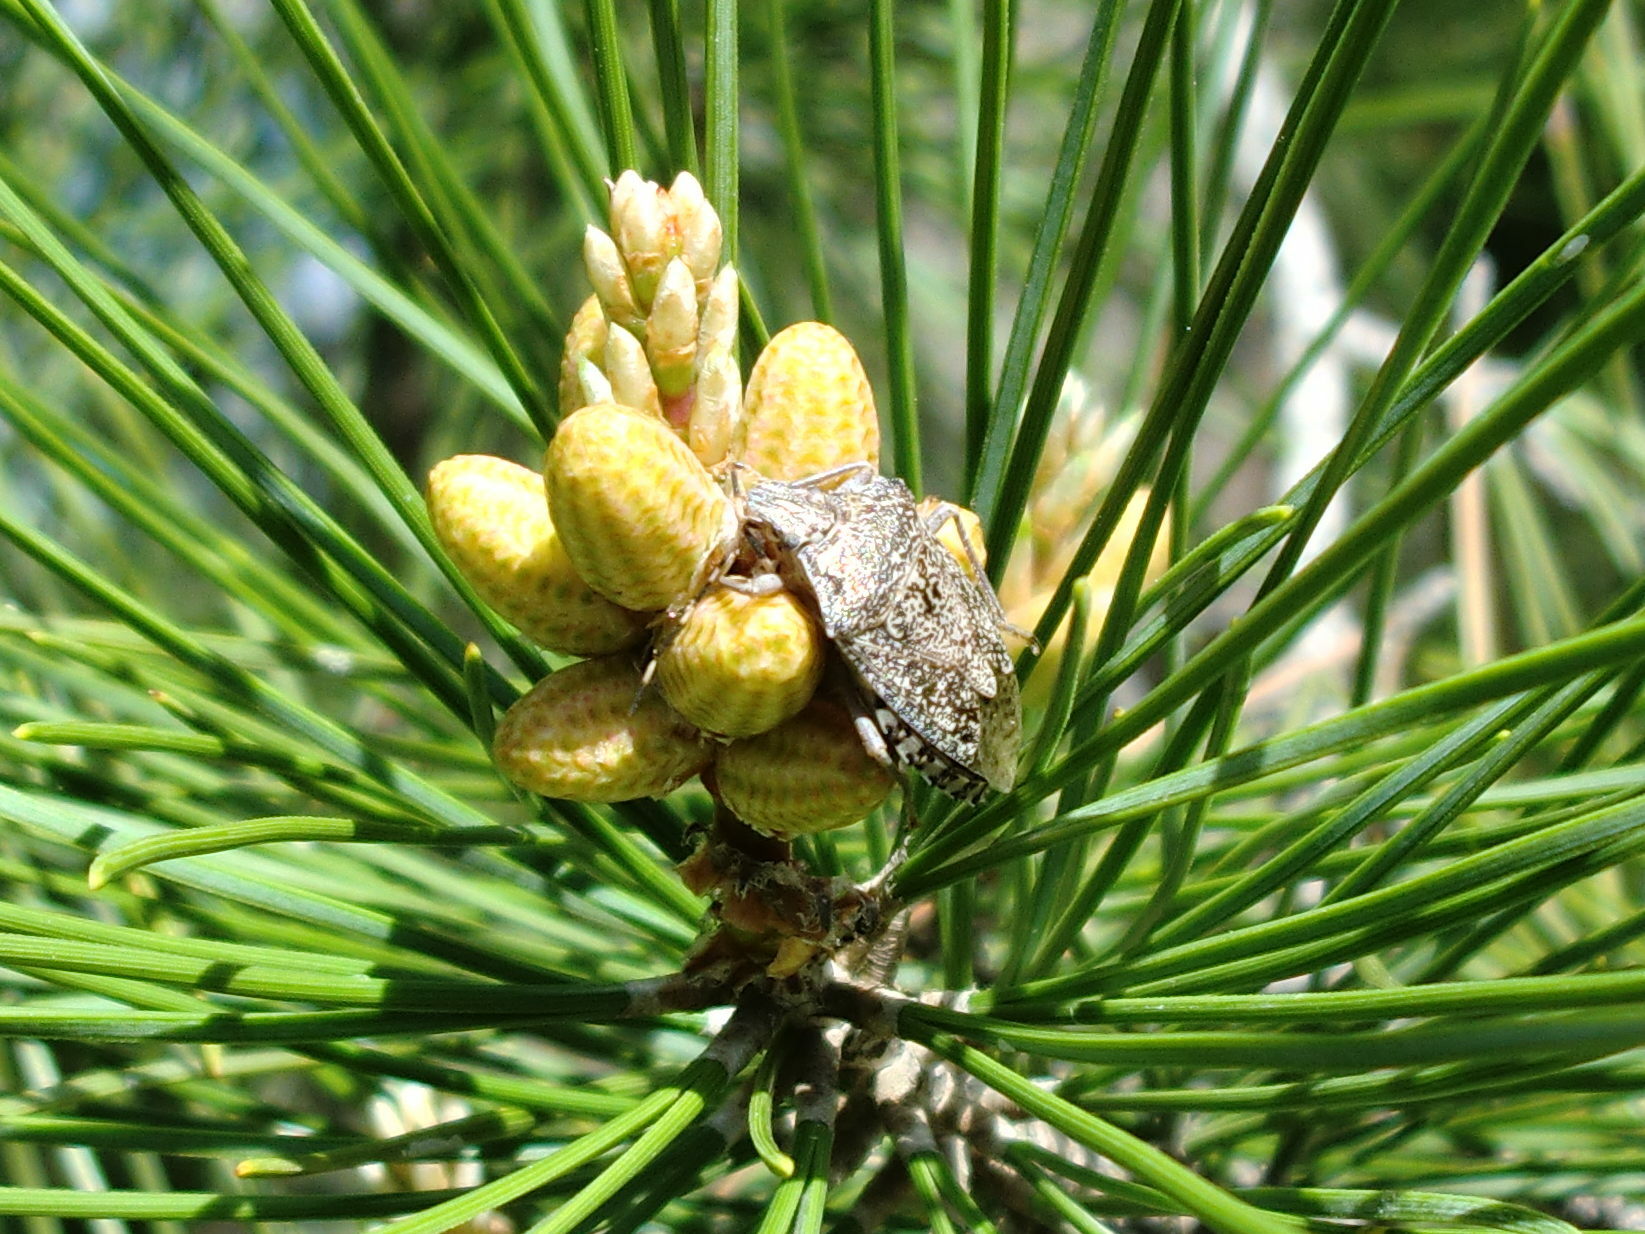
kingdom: Animalia
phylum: Arthropoda
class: Insecta
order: Hemiptera
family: Pentatomidae
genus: Rhaphigaster
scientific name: Rhaphigaster nebulosa
